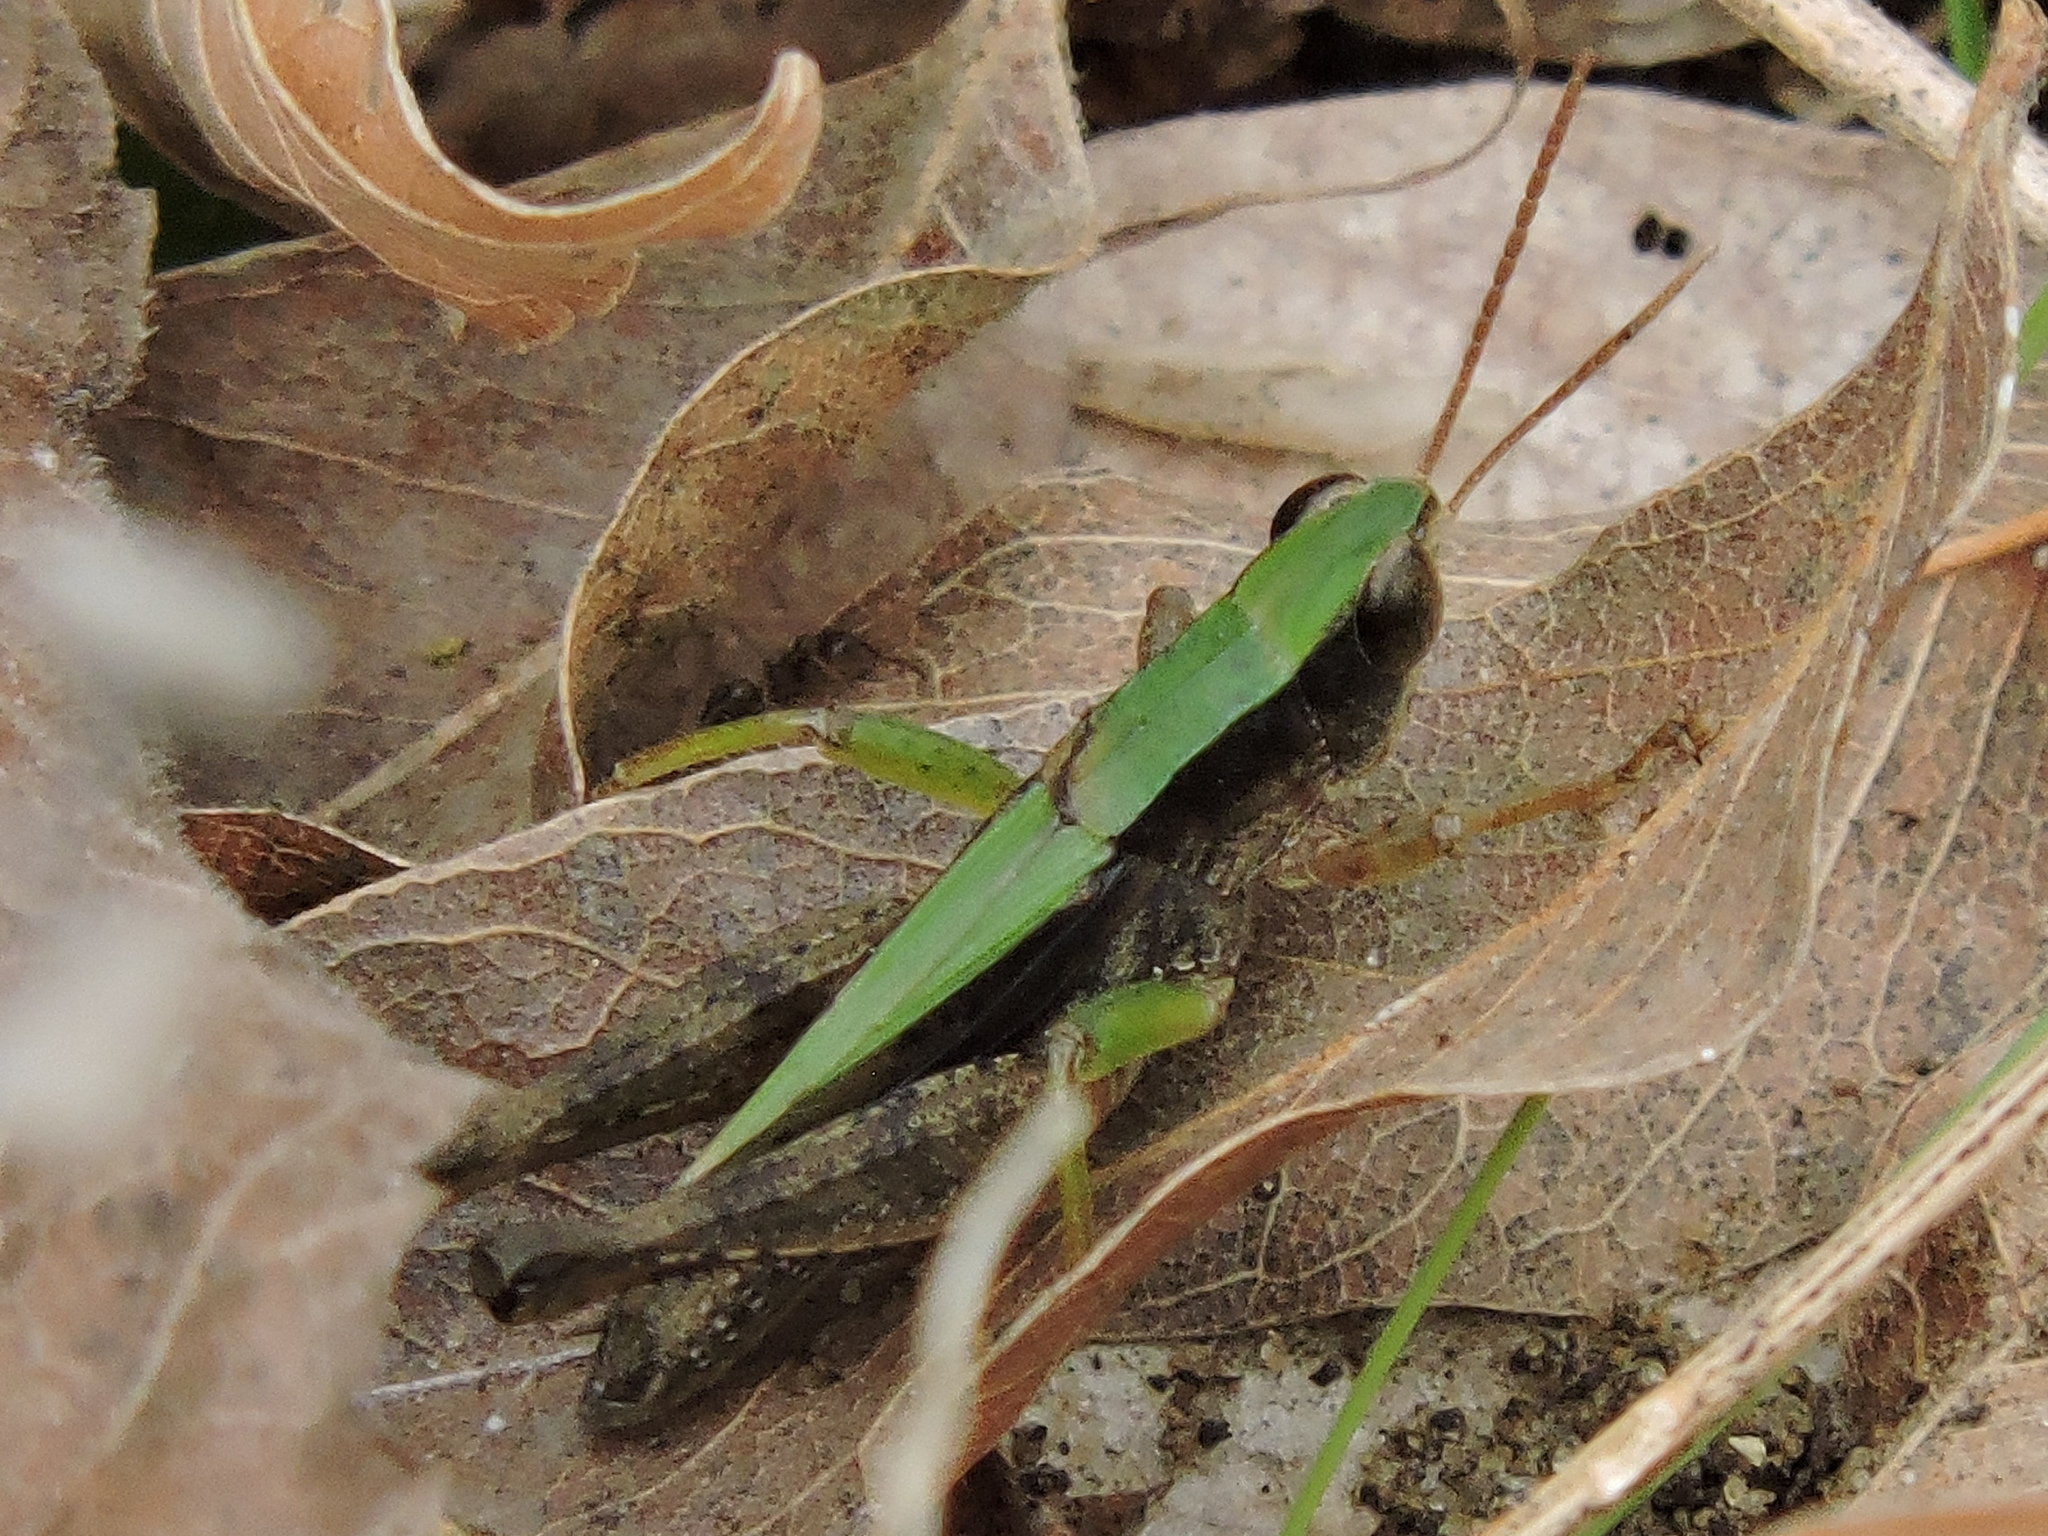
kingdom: Animalia
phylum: Arthropoda
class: Insecta
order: Orthoptera
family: Acrididae
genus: Dichromorpha
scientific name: Dichromorpha viridis
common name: Short-winged green grasshopper
